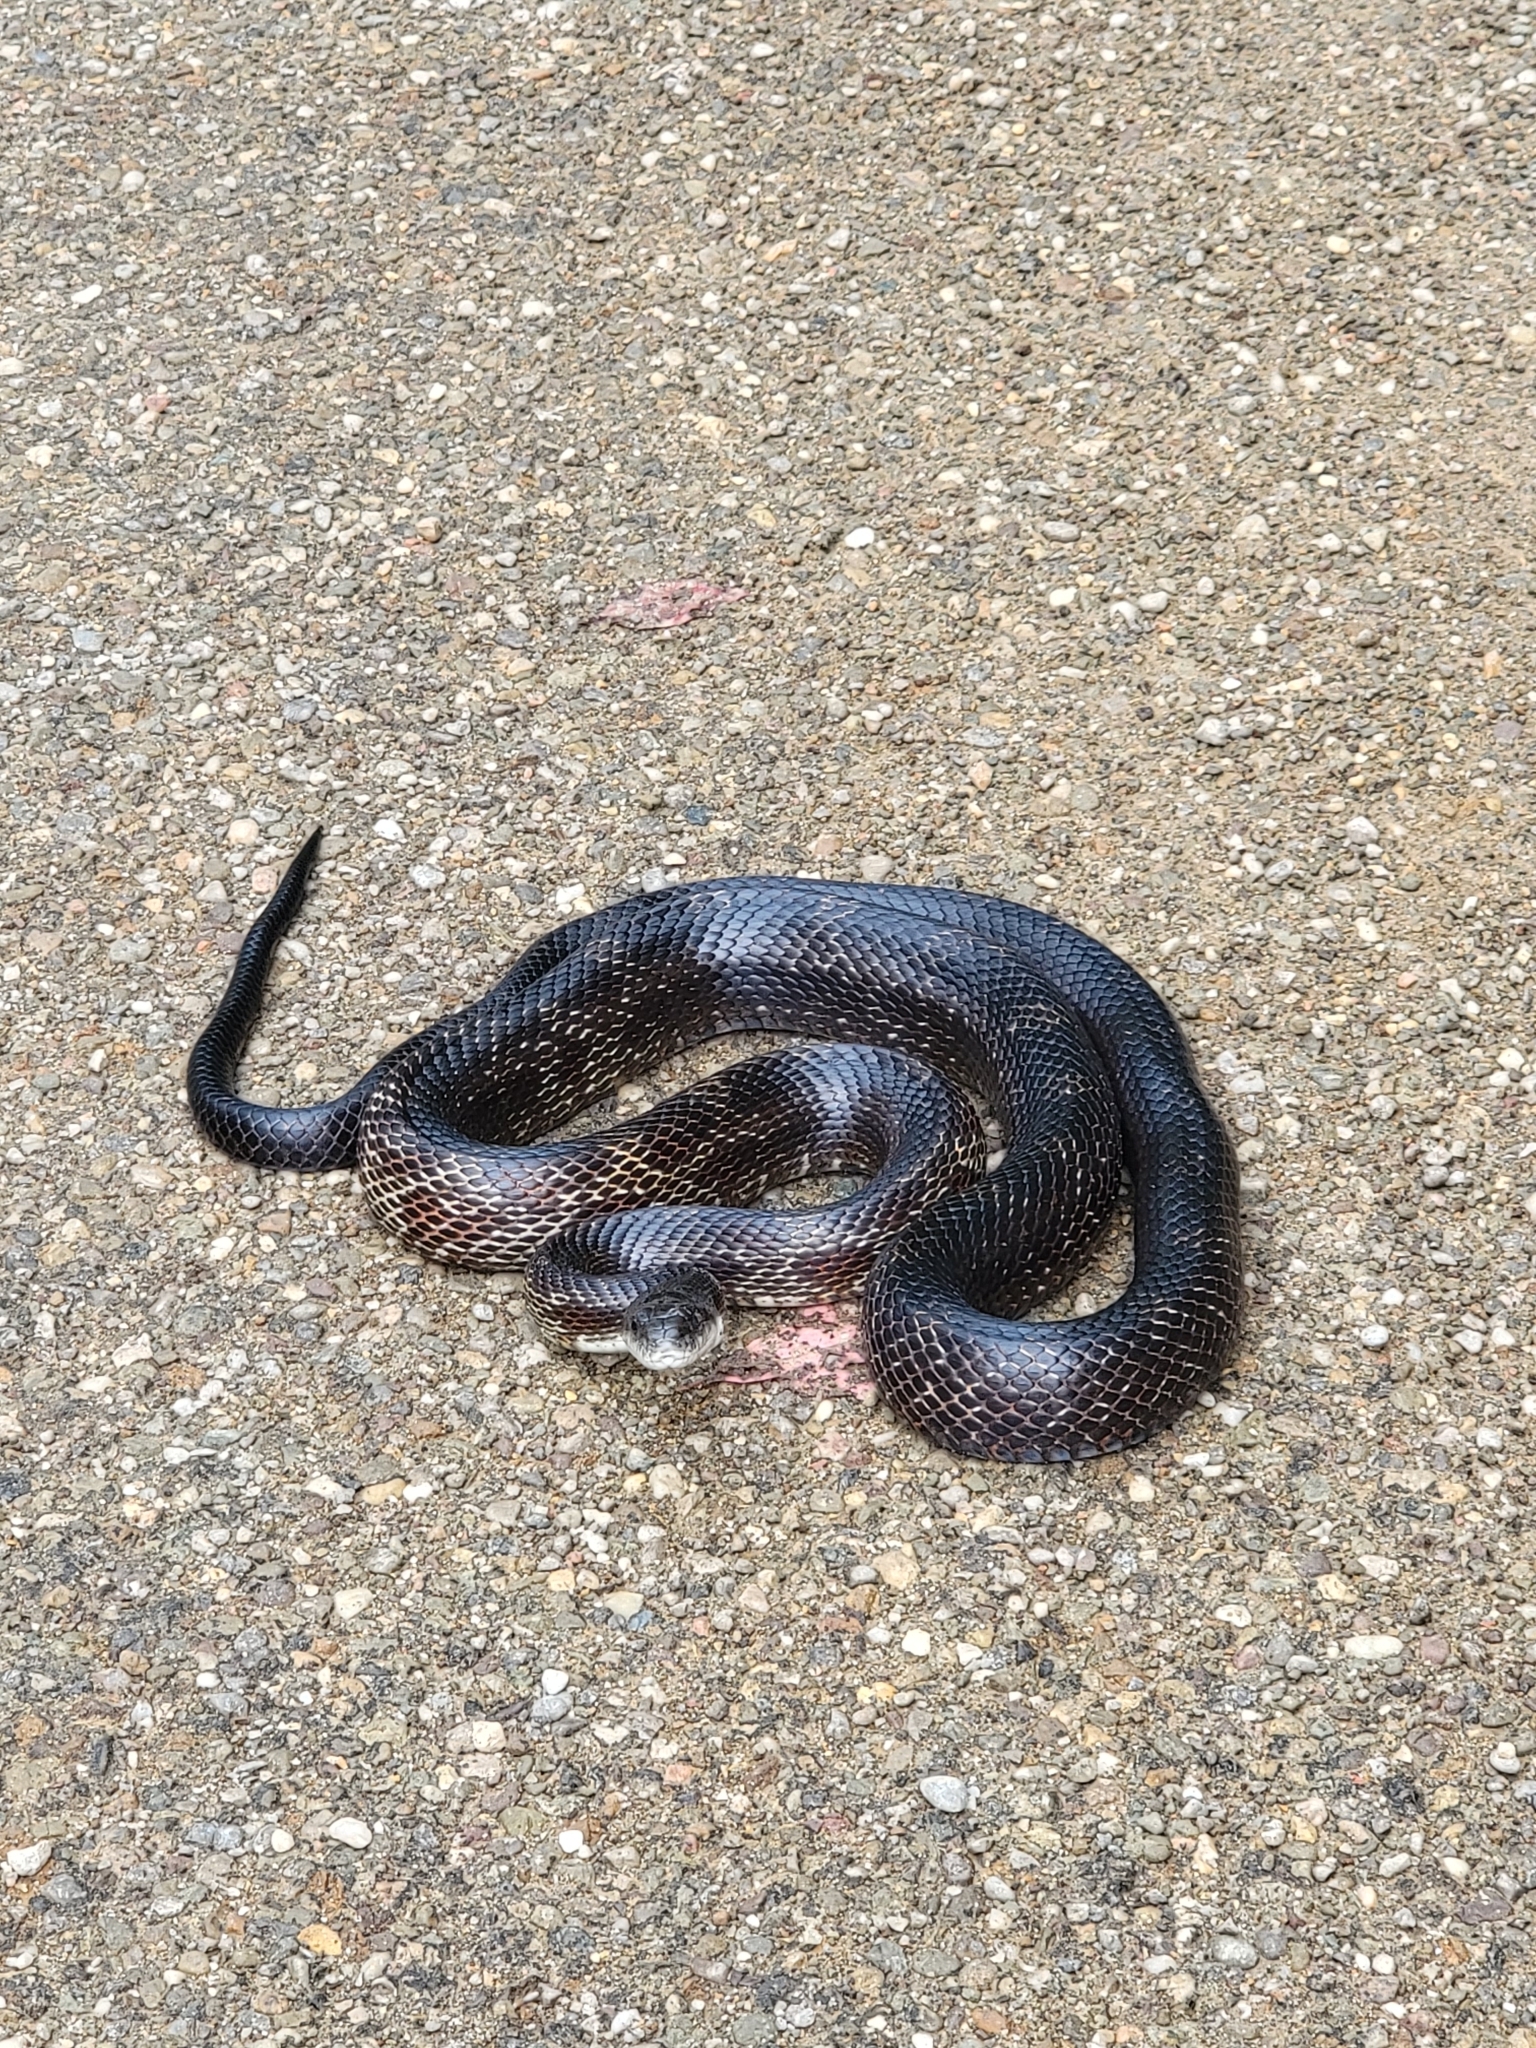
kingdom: Animalia
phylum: Chordata
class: Squamata
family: Colubridae
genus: Pantherophis
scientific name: Pantherophis spiloides
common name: Gray rat snake
